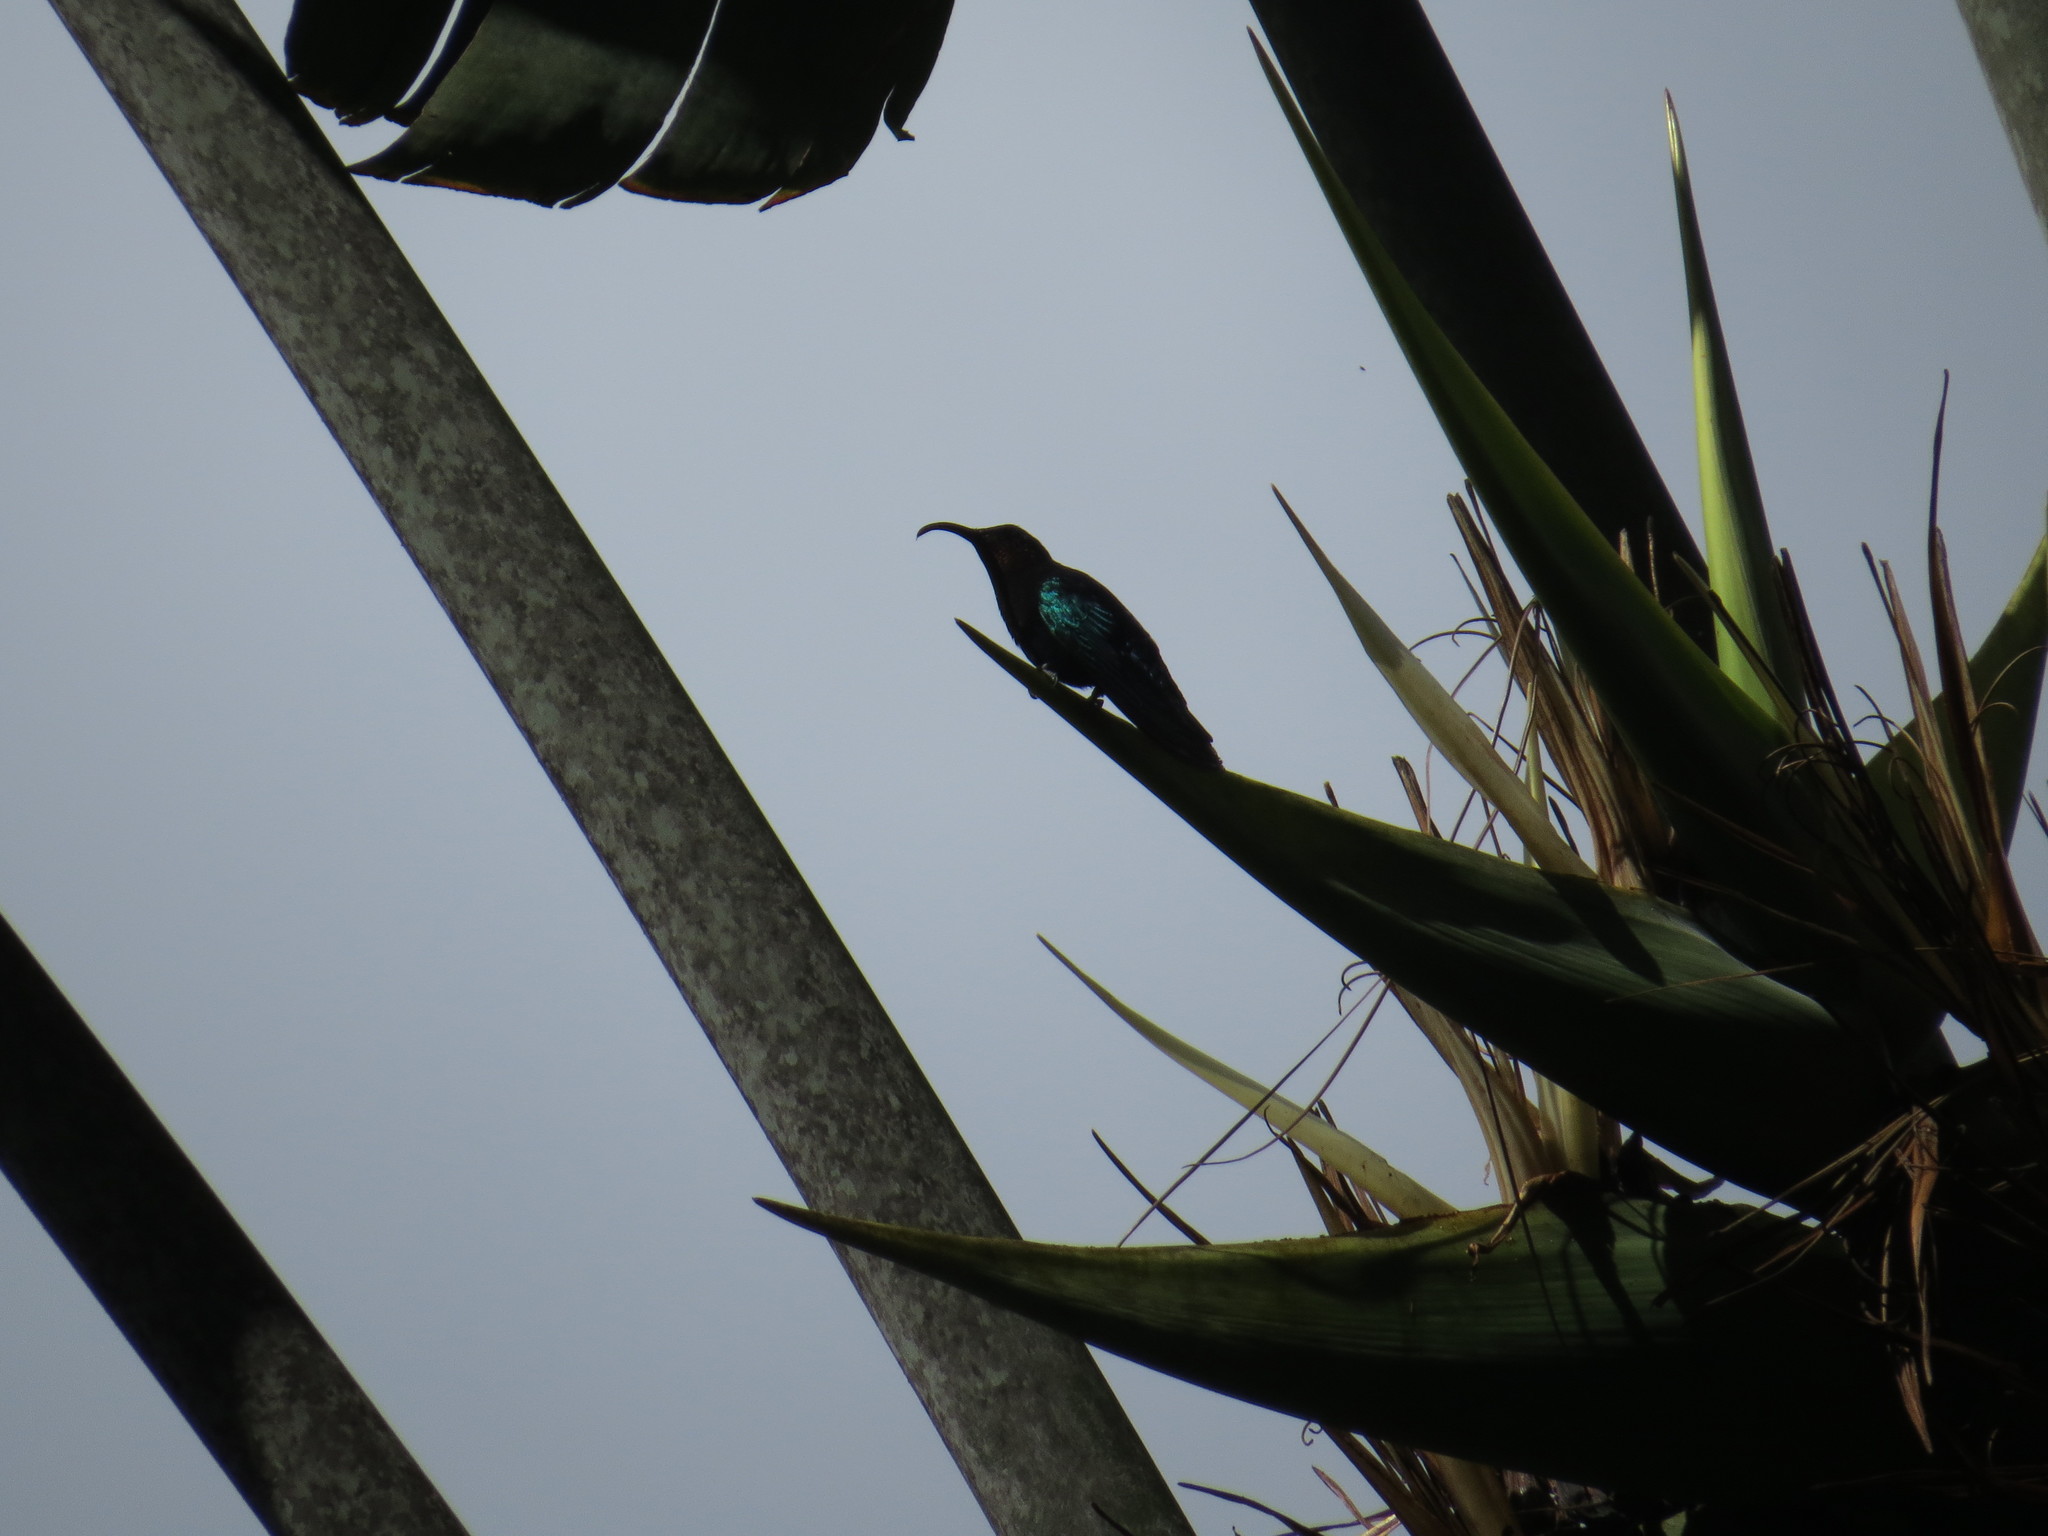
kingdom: Animalia
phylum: Chordata
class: Aves
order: Apodiformes
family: Trochilidae
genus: Eulampis
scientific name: Eulampis jugularis
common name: Purple-throated carib
